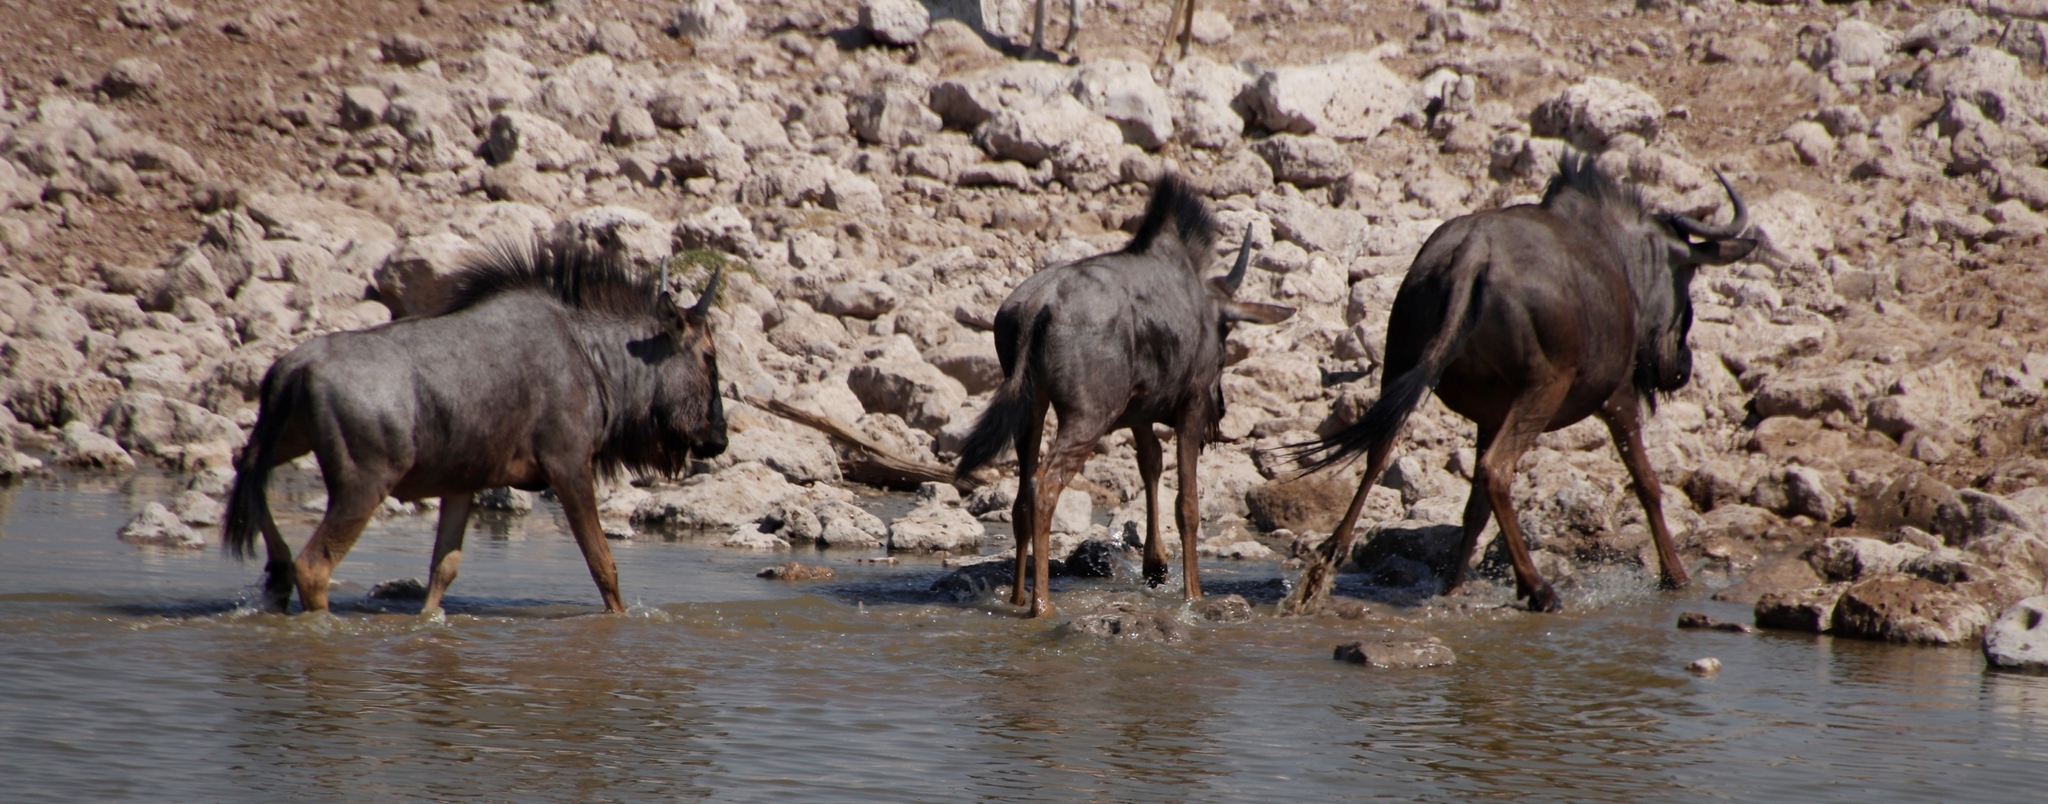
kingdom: Animalia
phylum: Chordata
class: Mammalia
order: Artiodactyla
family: Bovidae
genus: Connochaetes
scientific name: Connochaetes taurinus
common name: Blue wildebeest
